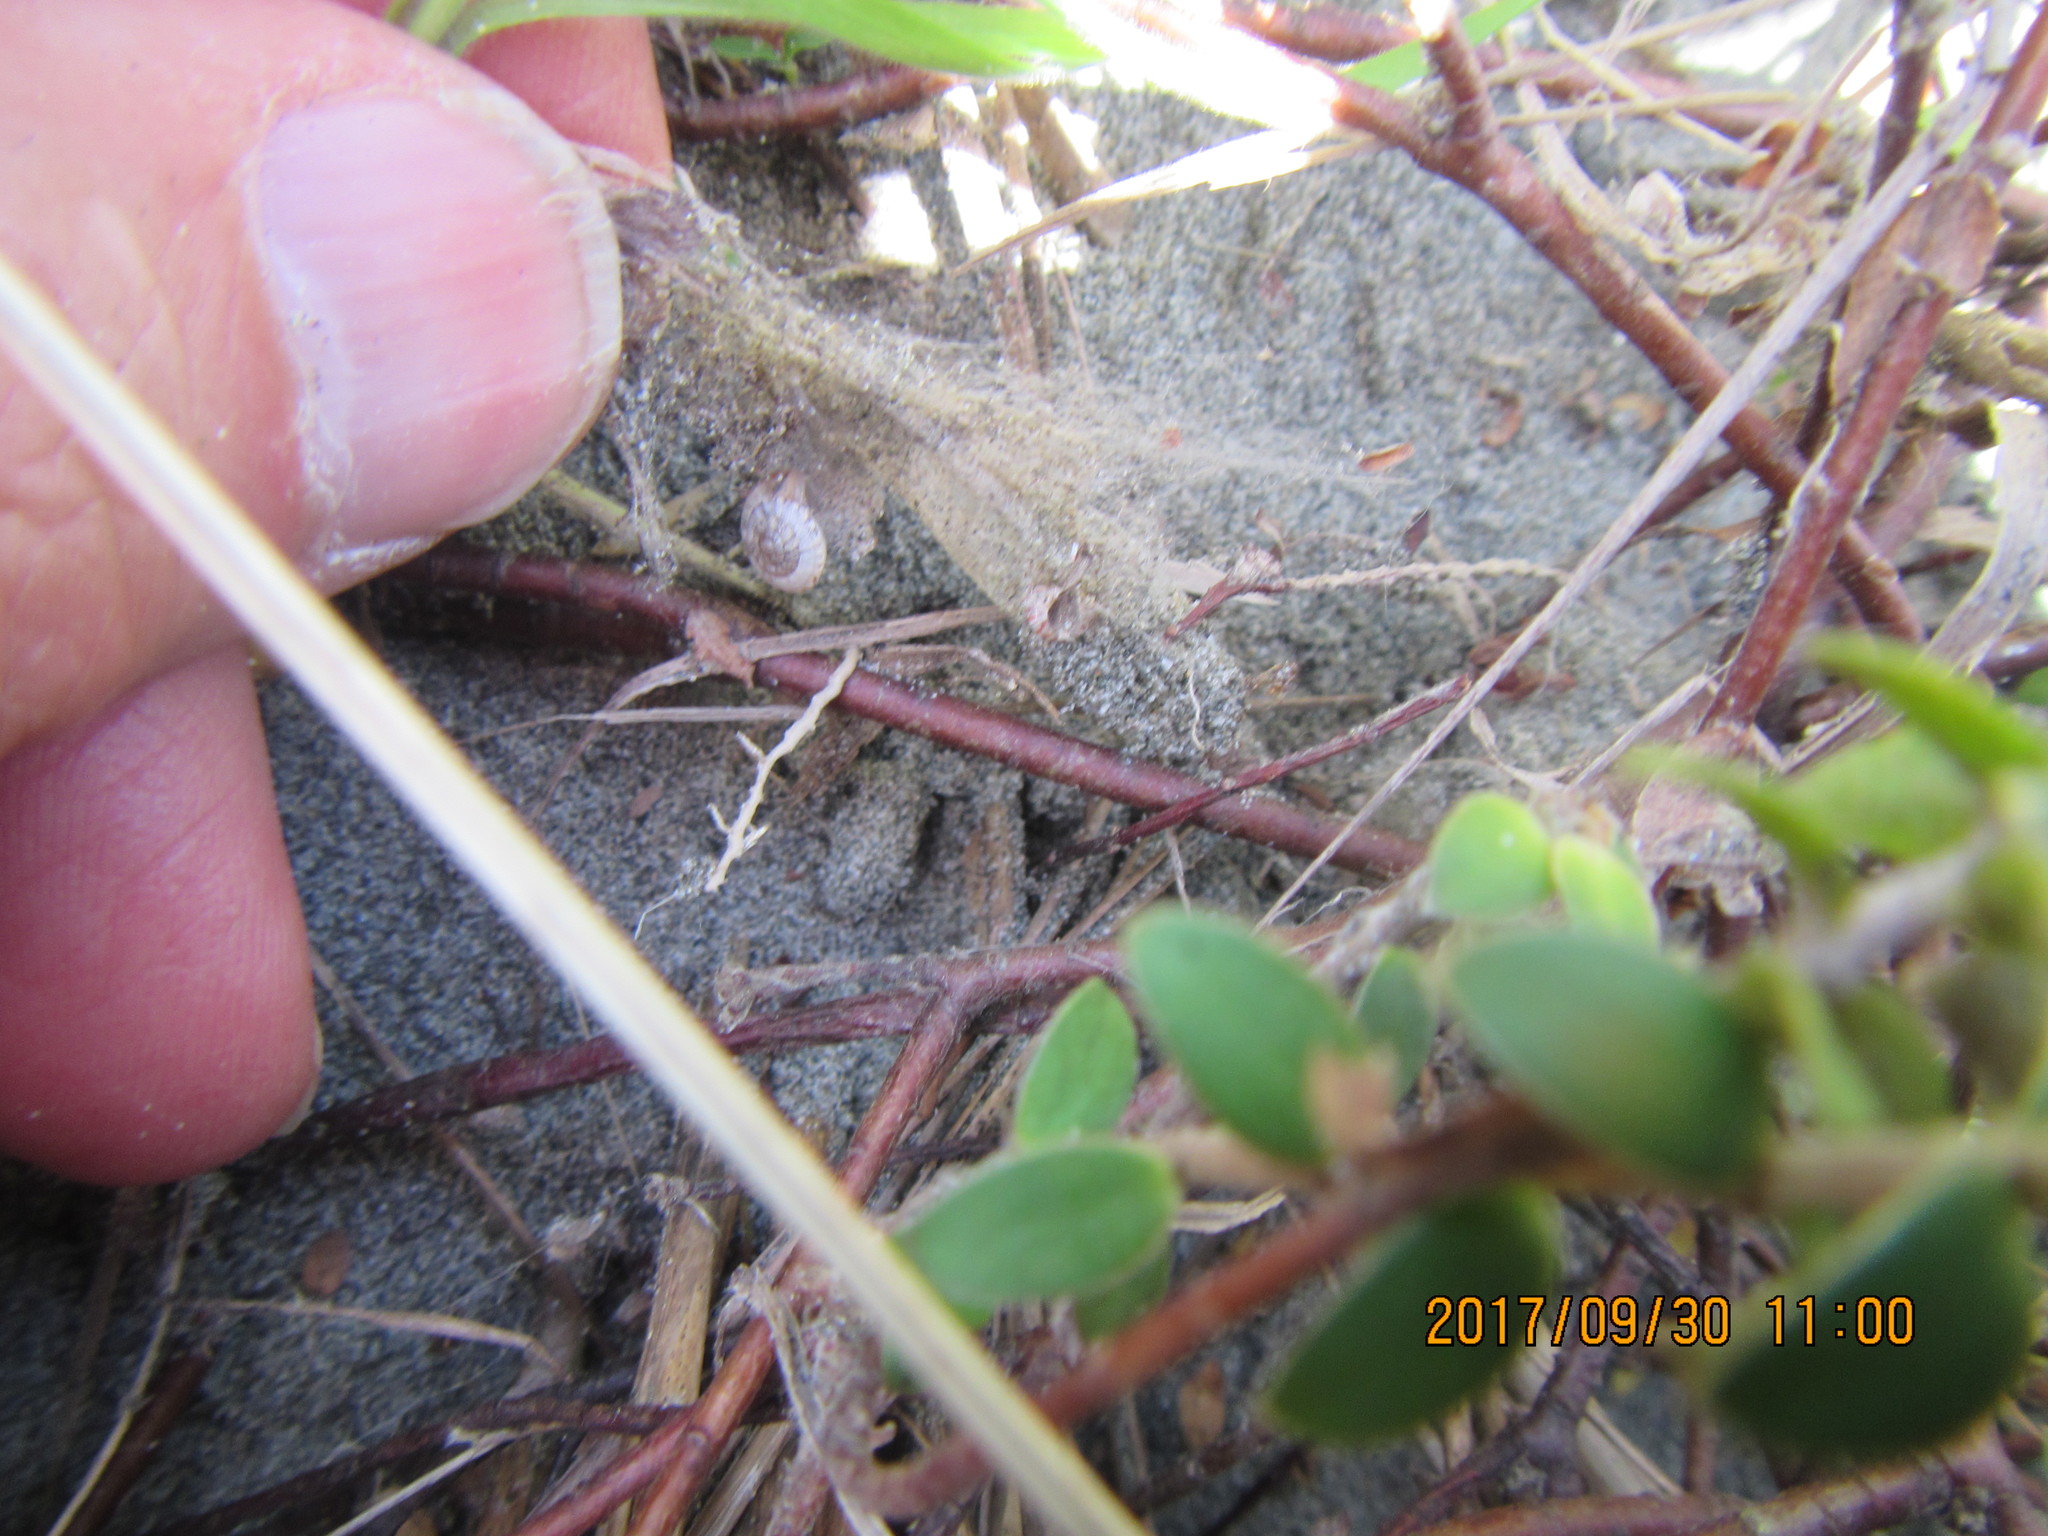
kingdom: Plantae
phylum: Tracheophyta
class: Magnoliopsida
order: Malvales
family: Thymelaeaceae
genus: Pimelea
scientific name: Pimelea villosa
